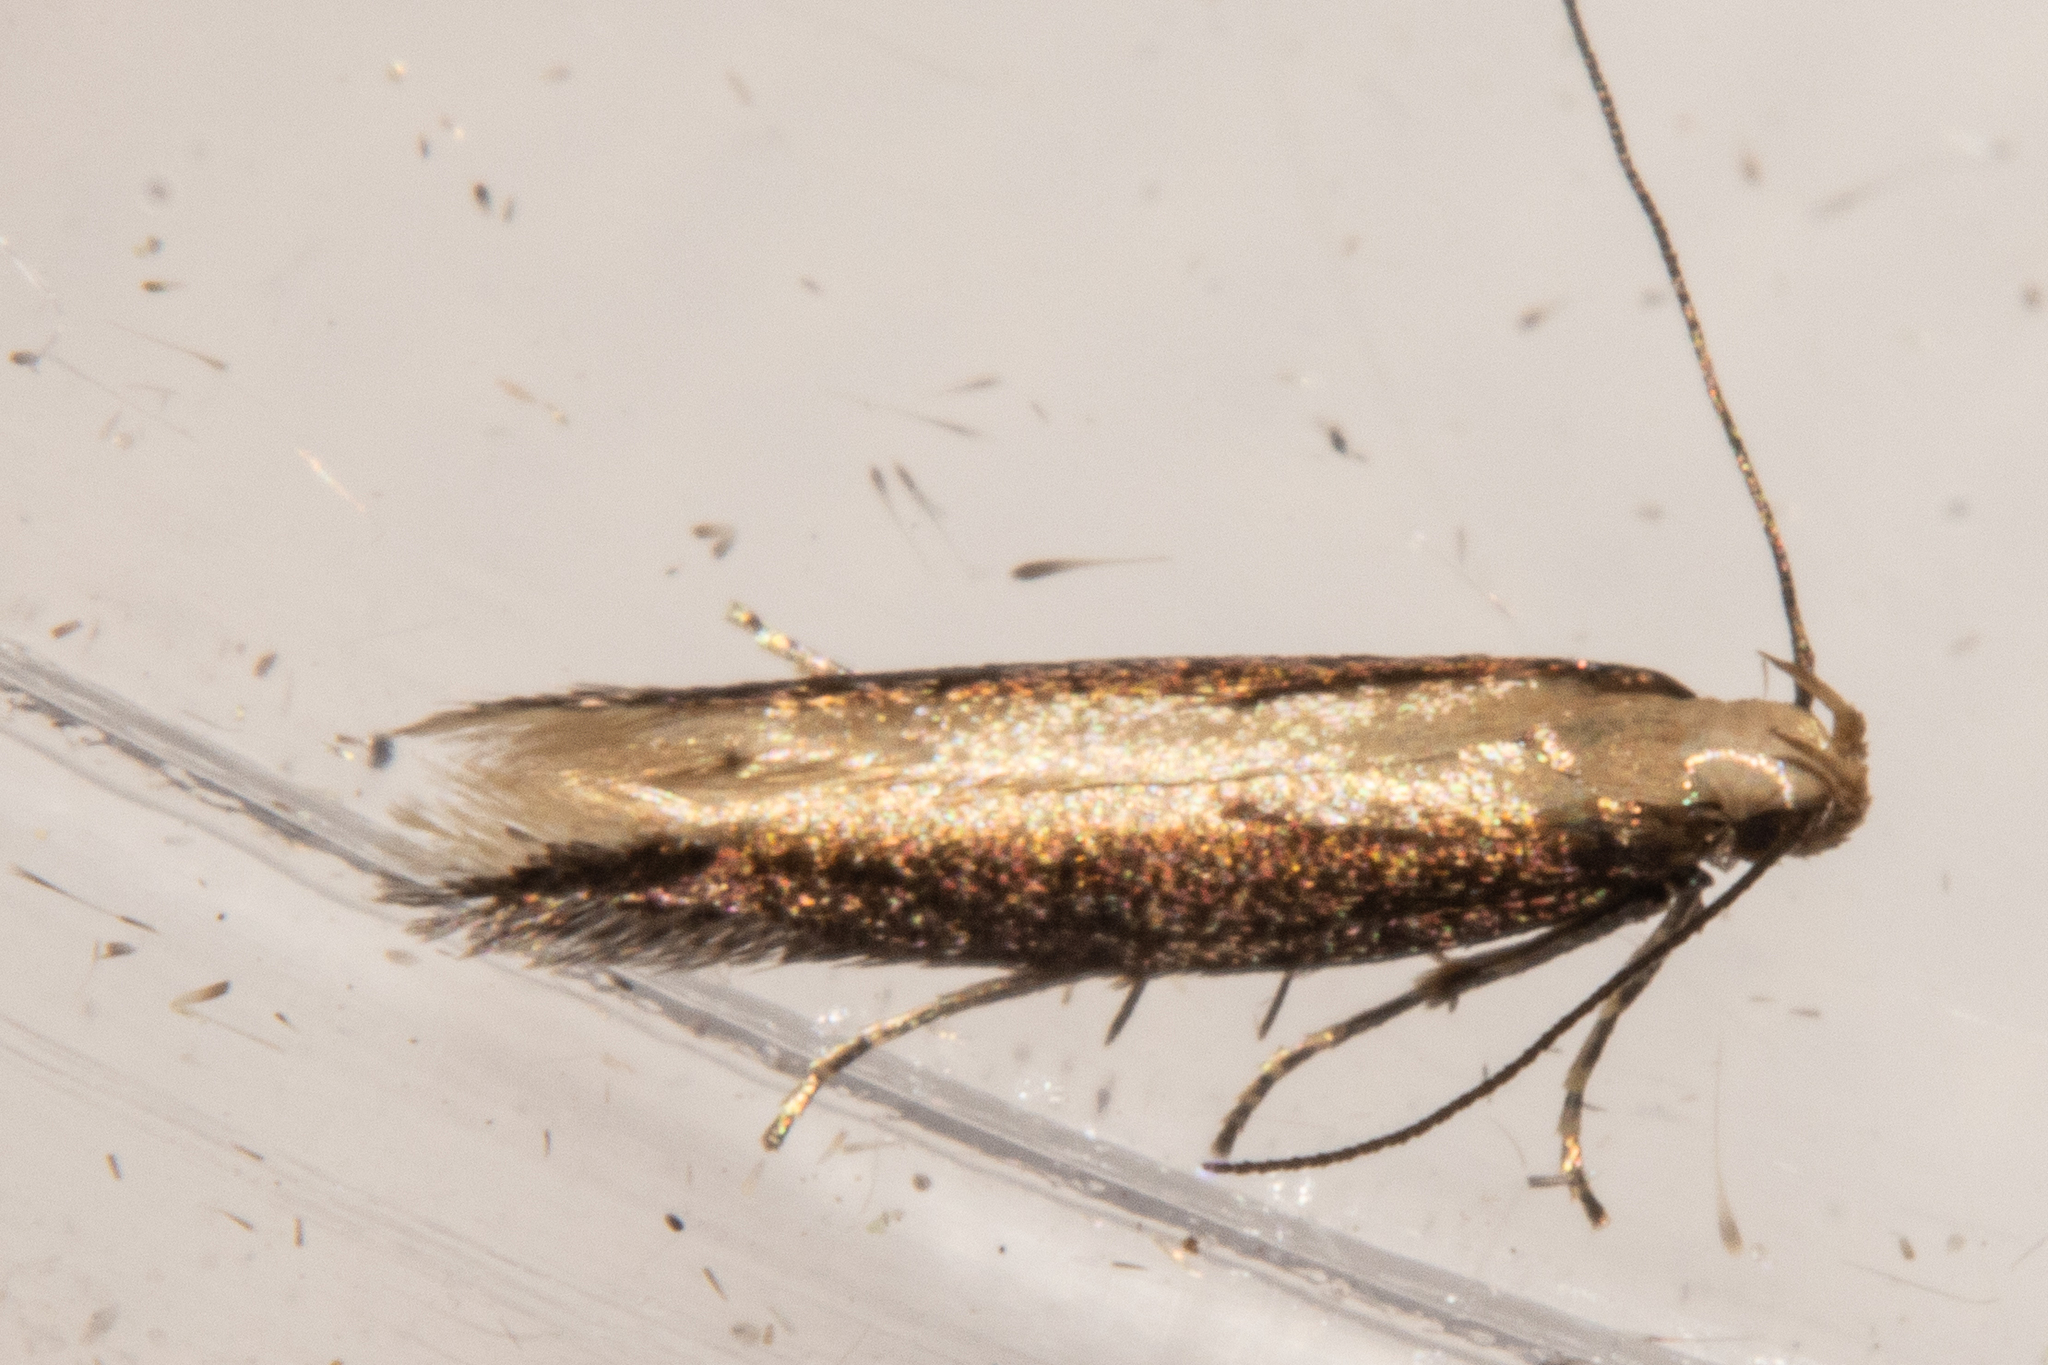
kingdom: Animalia
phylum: Arthropoda
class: Insecta
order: Lepidoptera
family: Gelechiidae
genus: Kiwaia
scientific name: Kiwaia parvula
